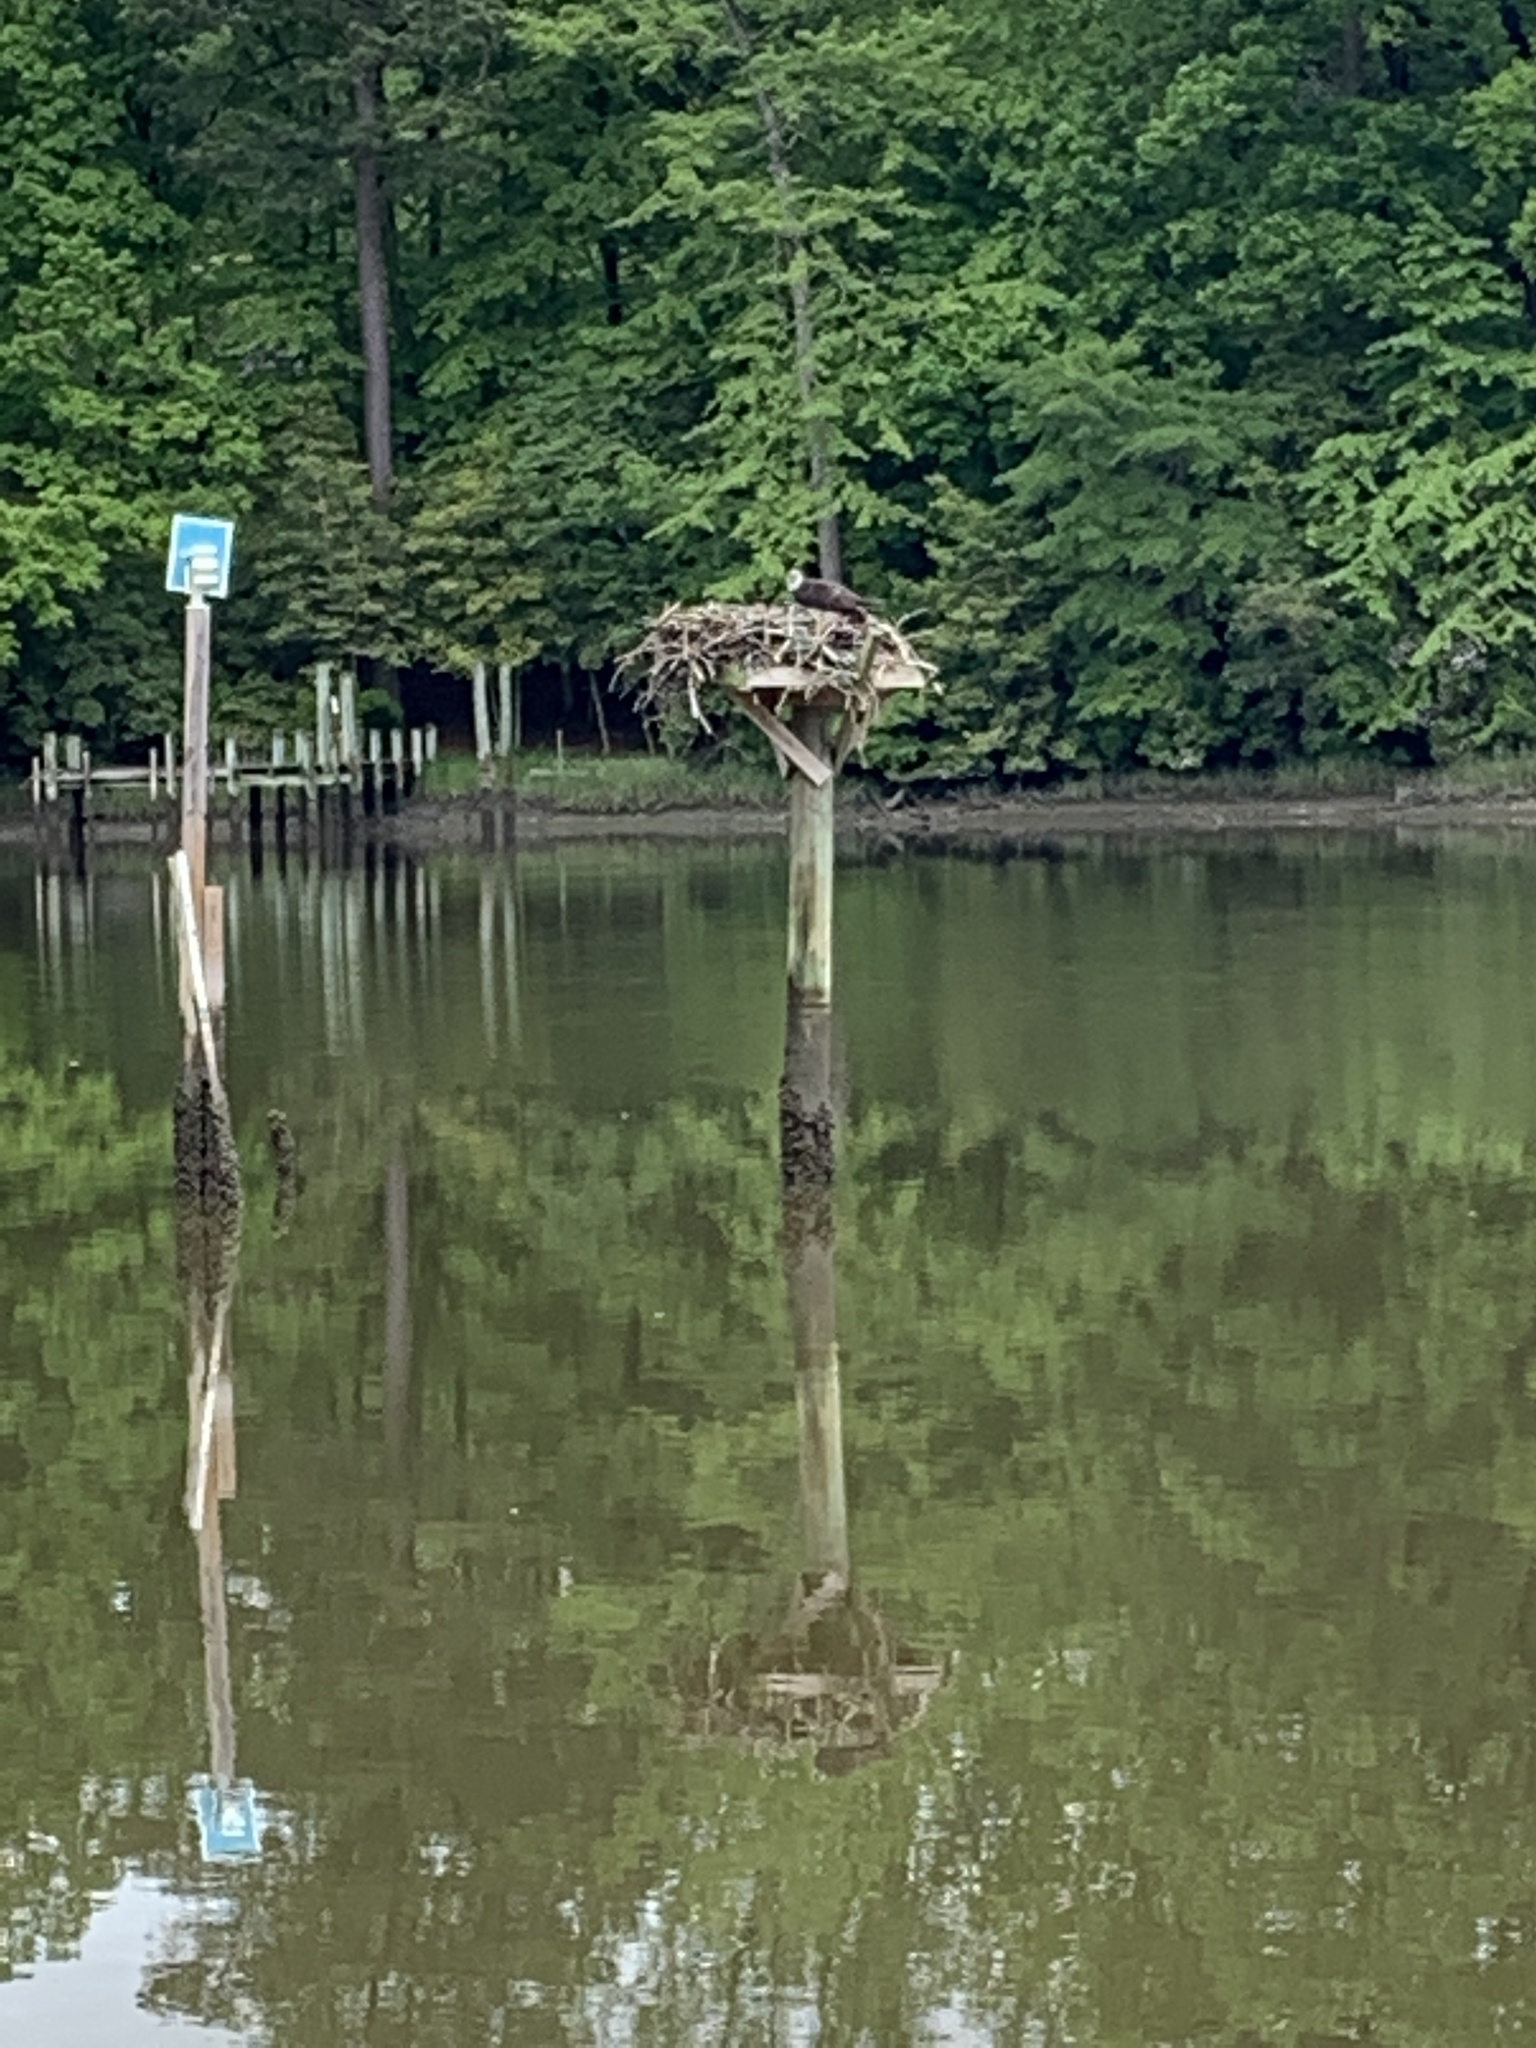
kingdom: Animalia
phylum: Chordata
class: Aves
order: Accipitriformes
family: Pandionidae
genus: Pandion
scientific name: Pandion haliaetus
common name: Osprey
